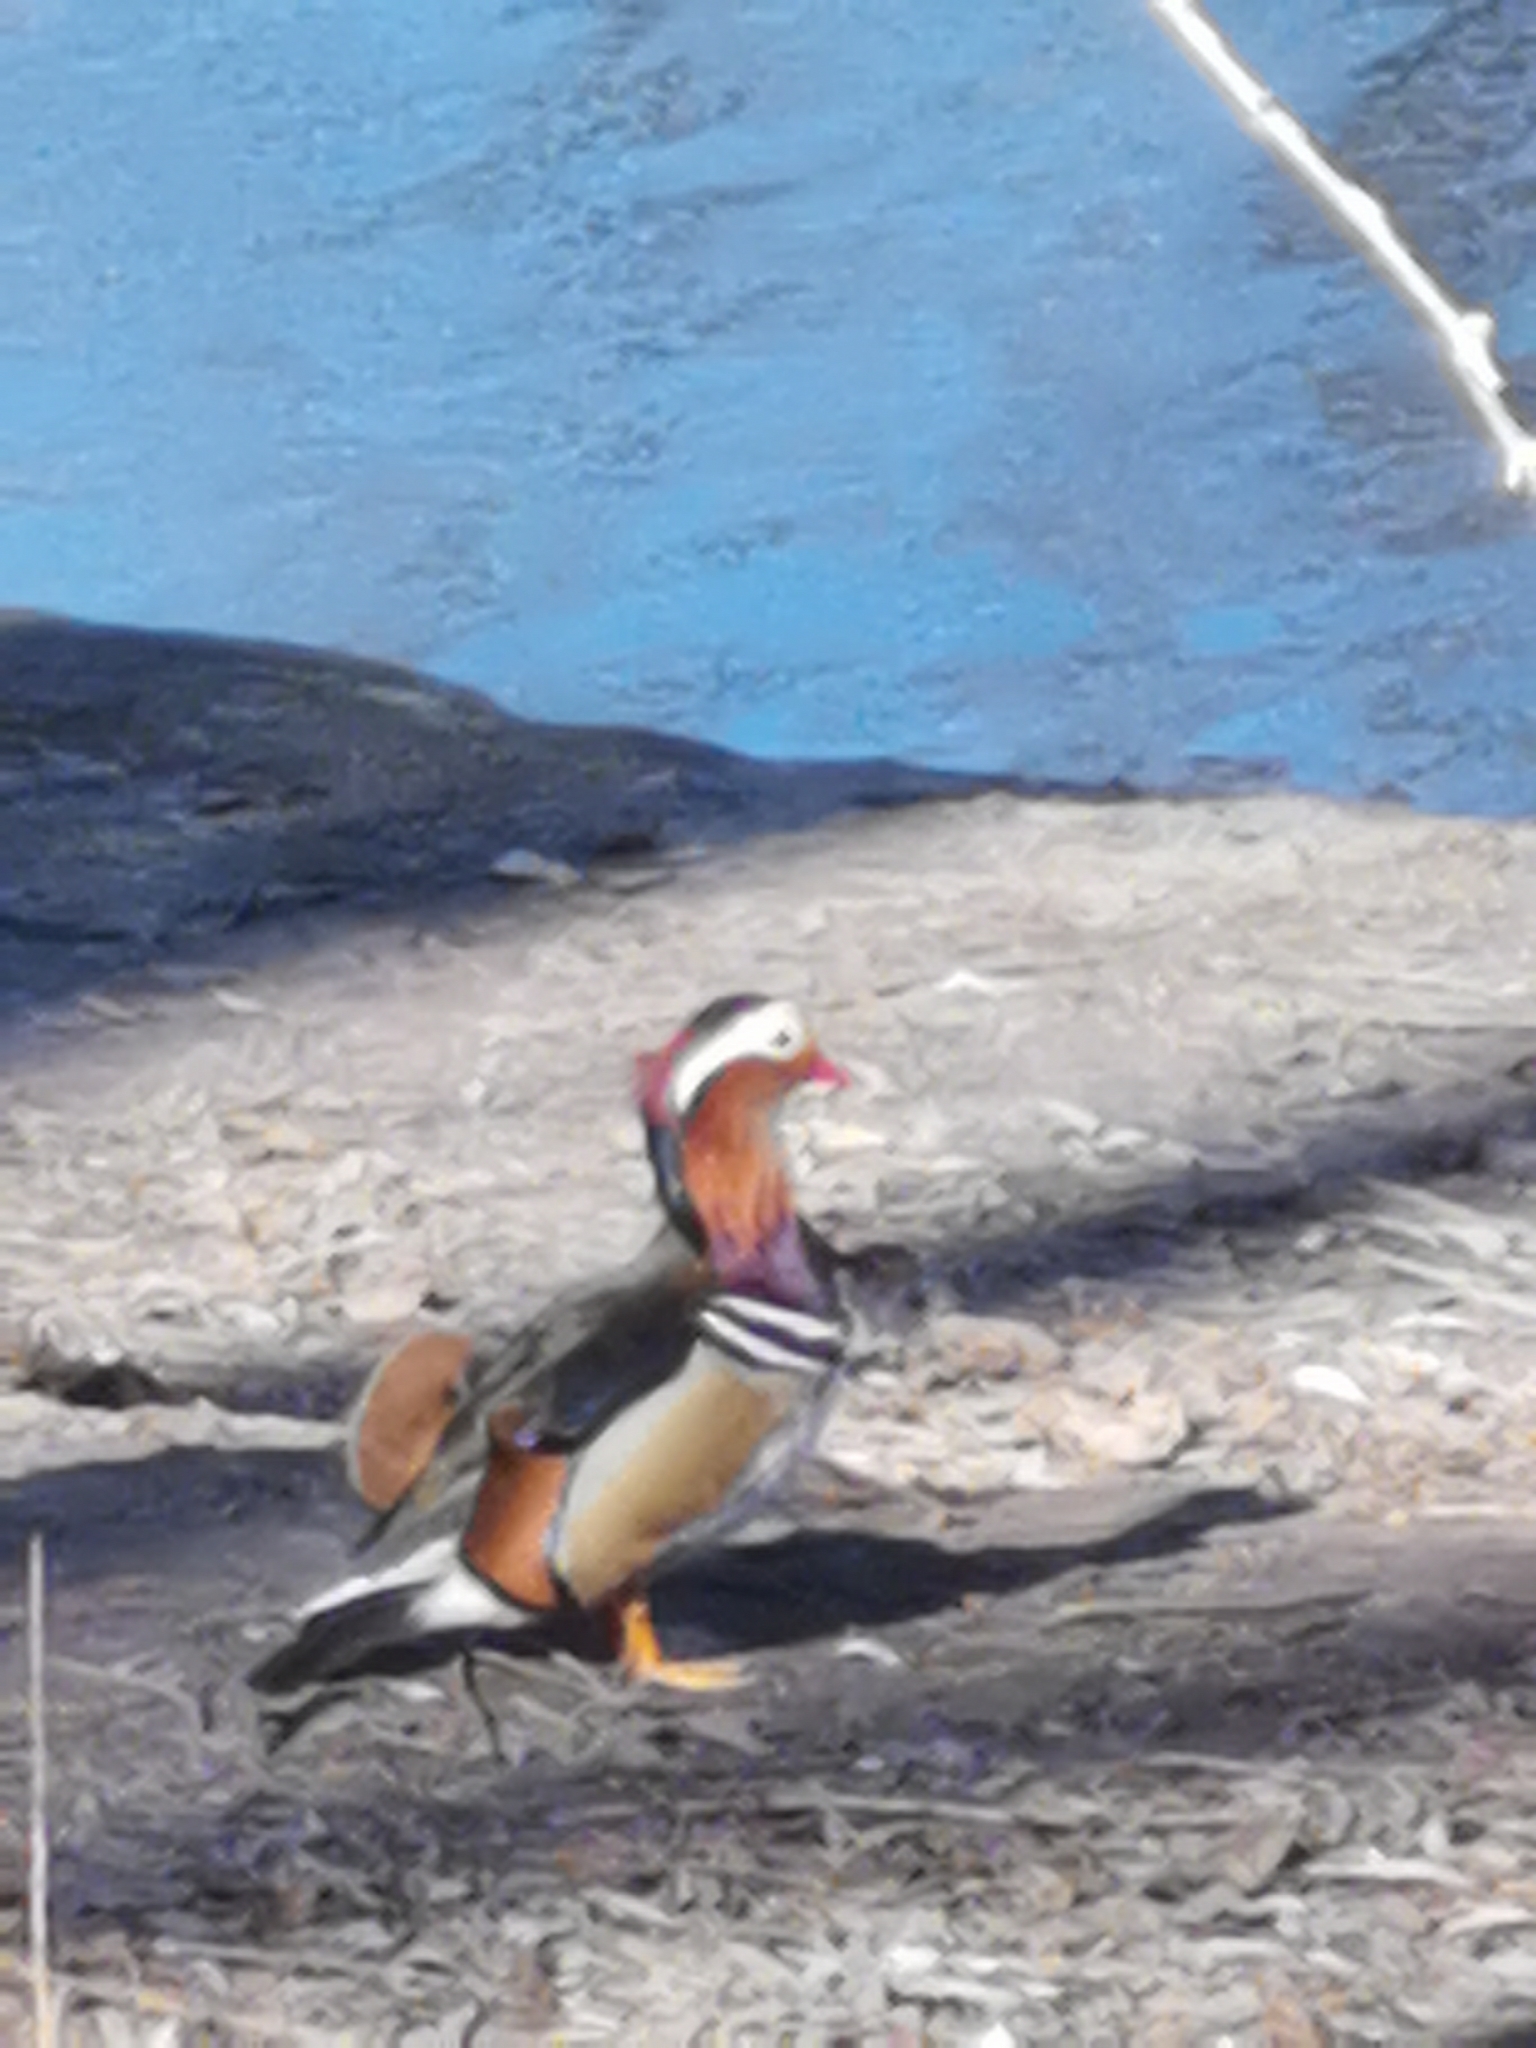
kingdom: Animalia
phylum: Chordata
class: Aves
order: Anseriformes
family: Anatidae
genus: Aix
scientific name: Aix galericulata
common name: Mandarin duck
